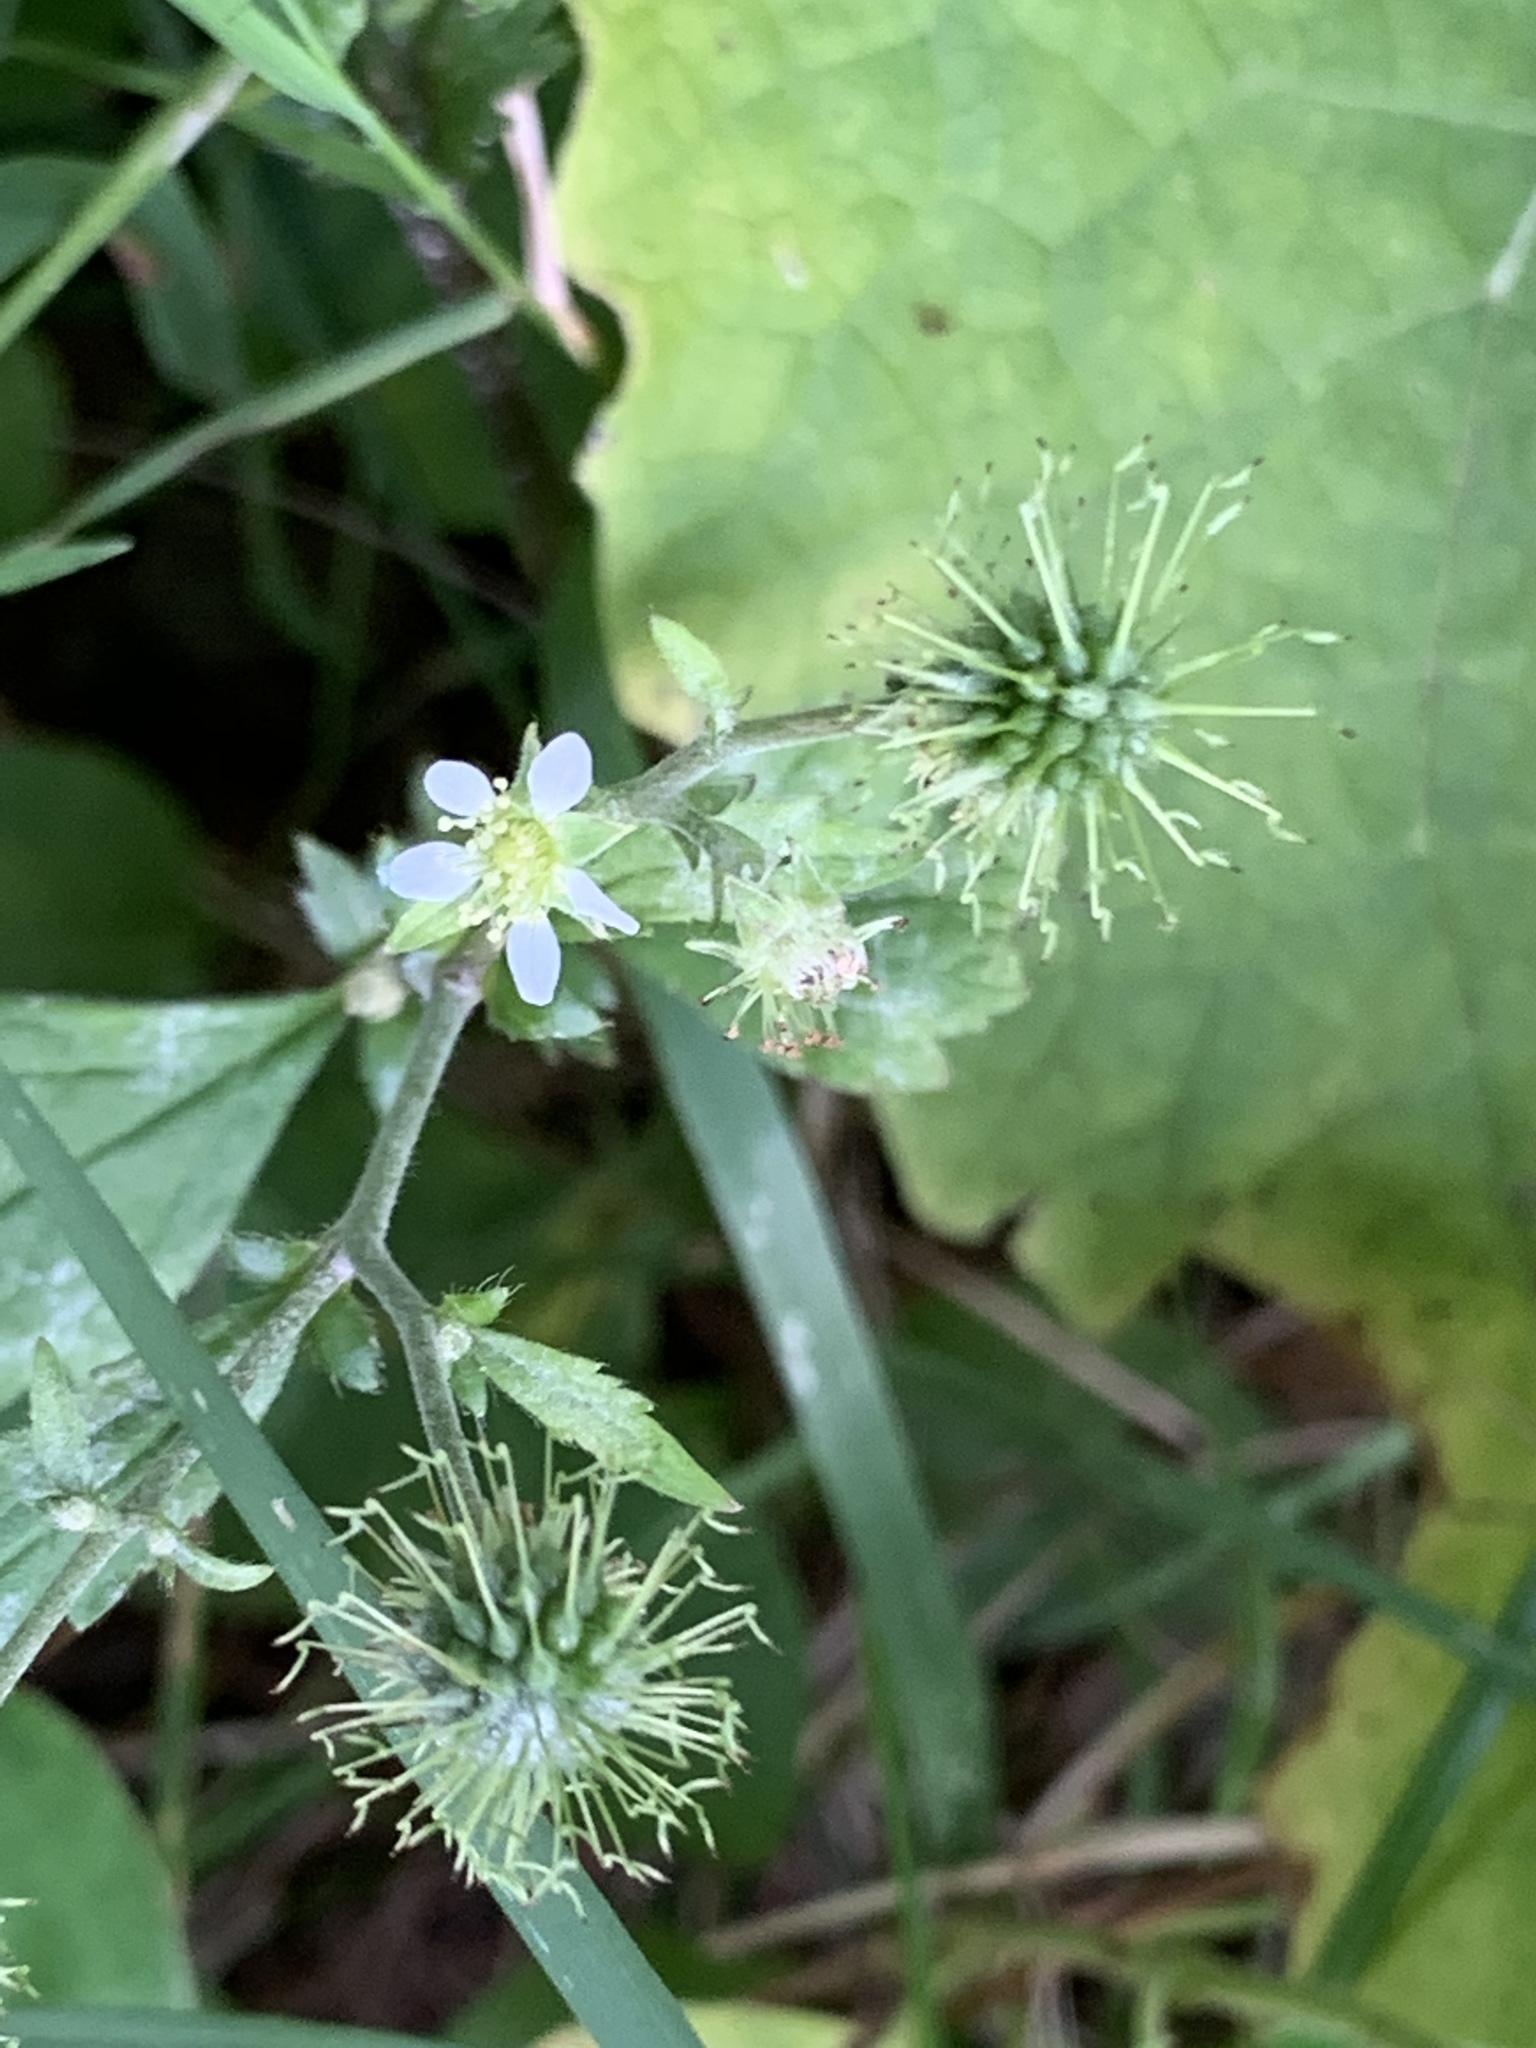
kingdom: Plantae
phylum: Tracheophyta
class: Magnoliopsida
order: Rosales
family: Rosaceae
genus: Geum
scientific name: Geum canadense
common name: White avens
